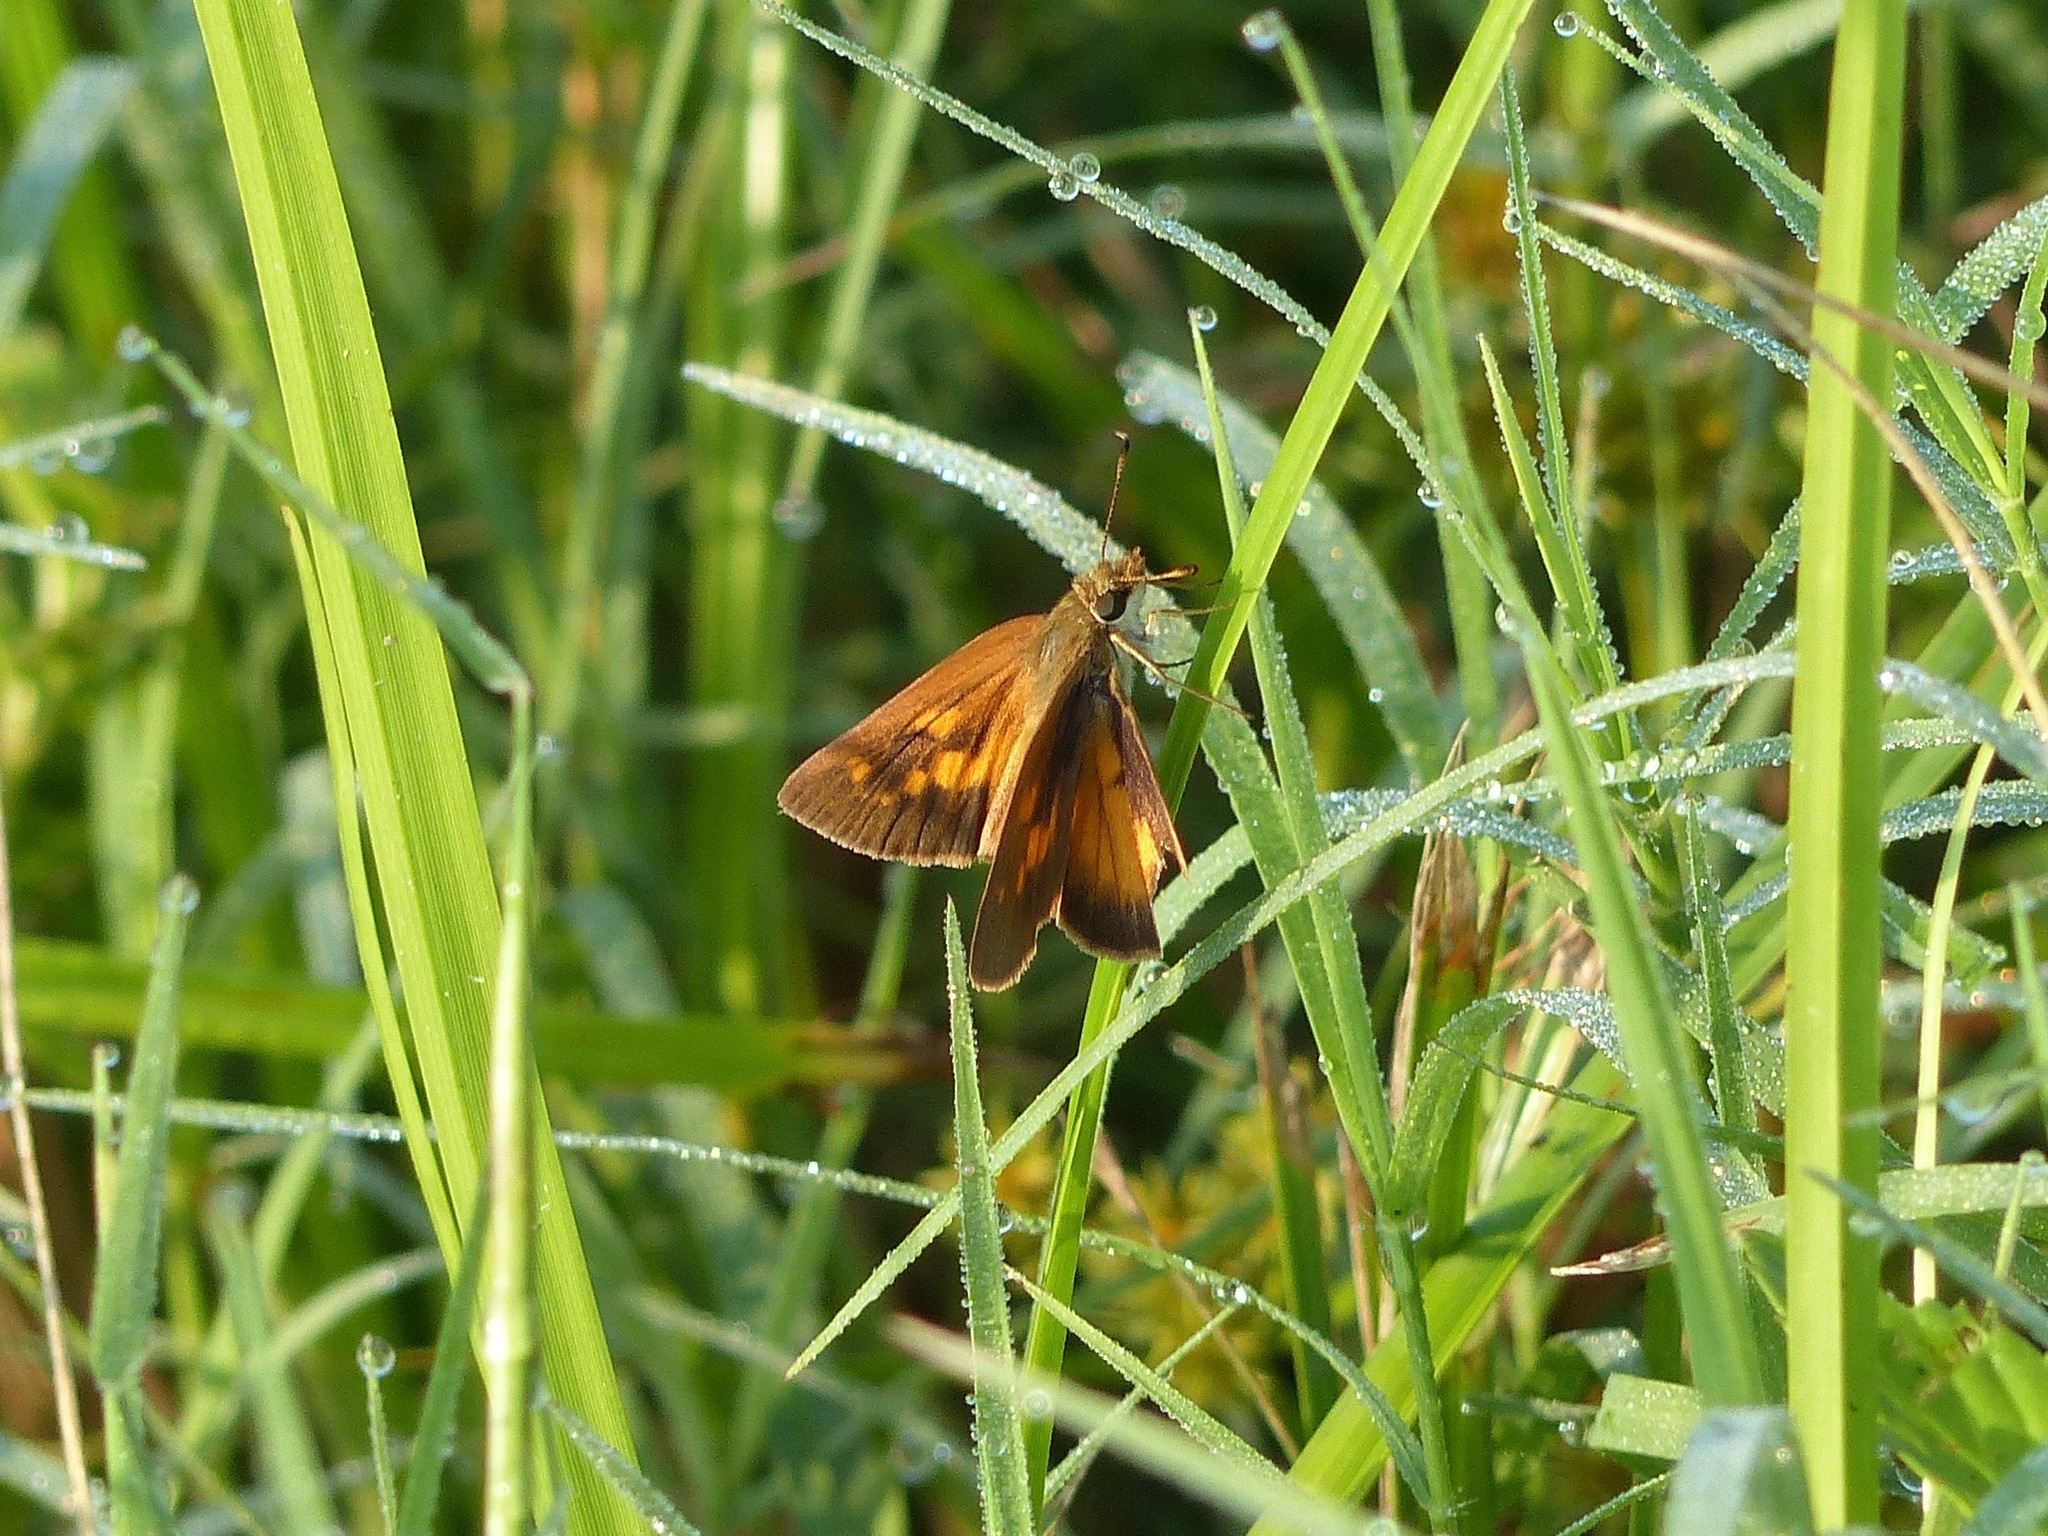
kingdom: Animalia
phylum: Arthropoda
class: Insecta
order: Lepidoptera
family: Hesperiidae
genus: Poanes
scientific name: Poanes viator
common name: Broad-winged skipper
